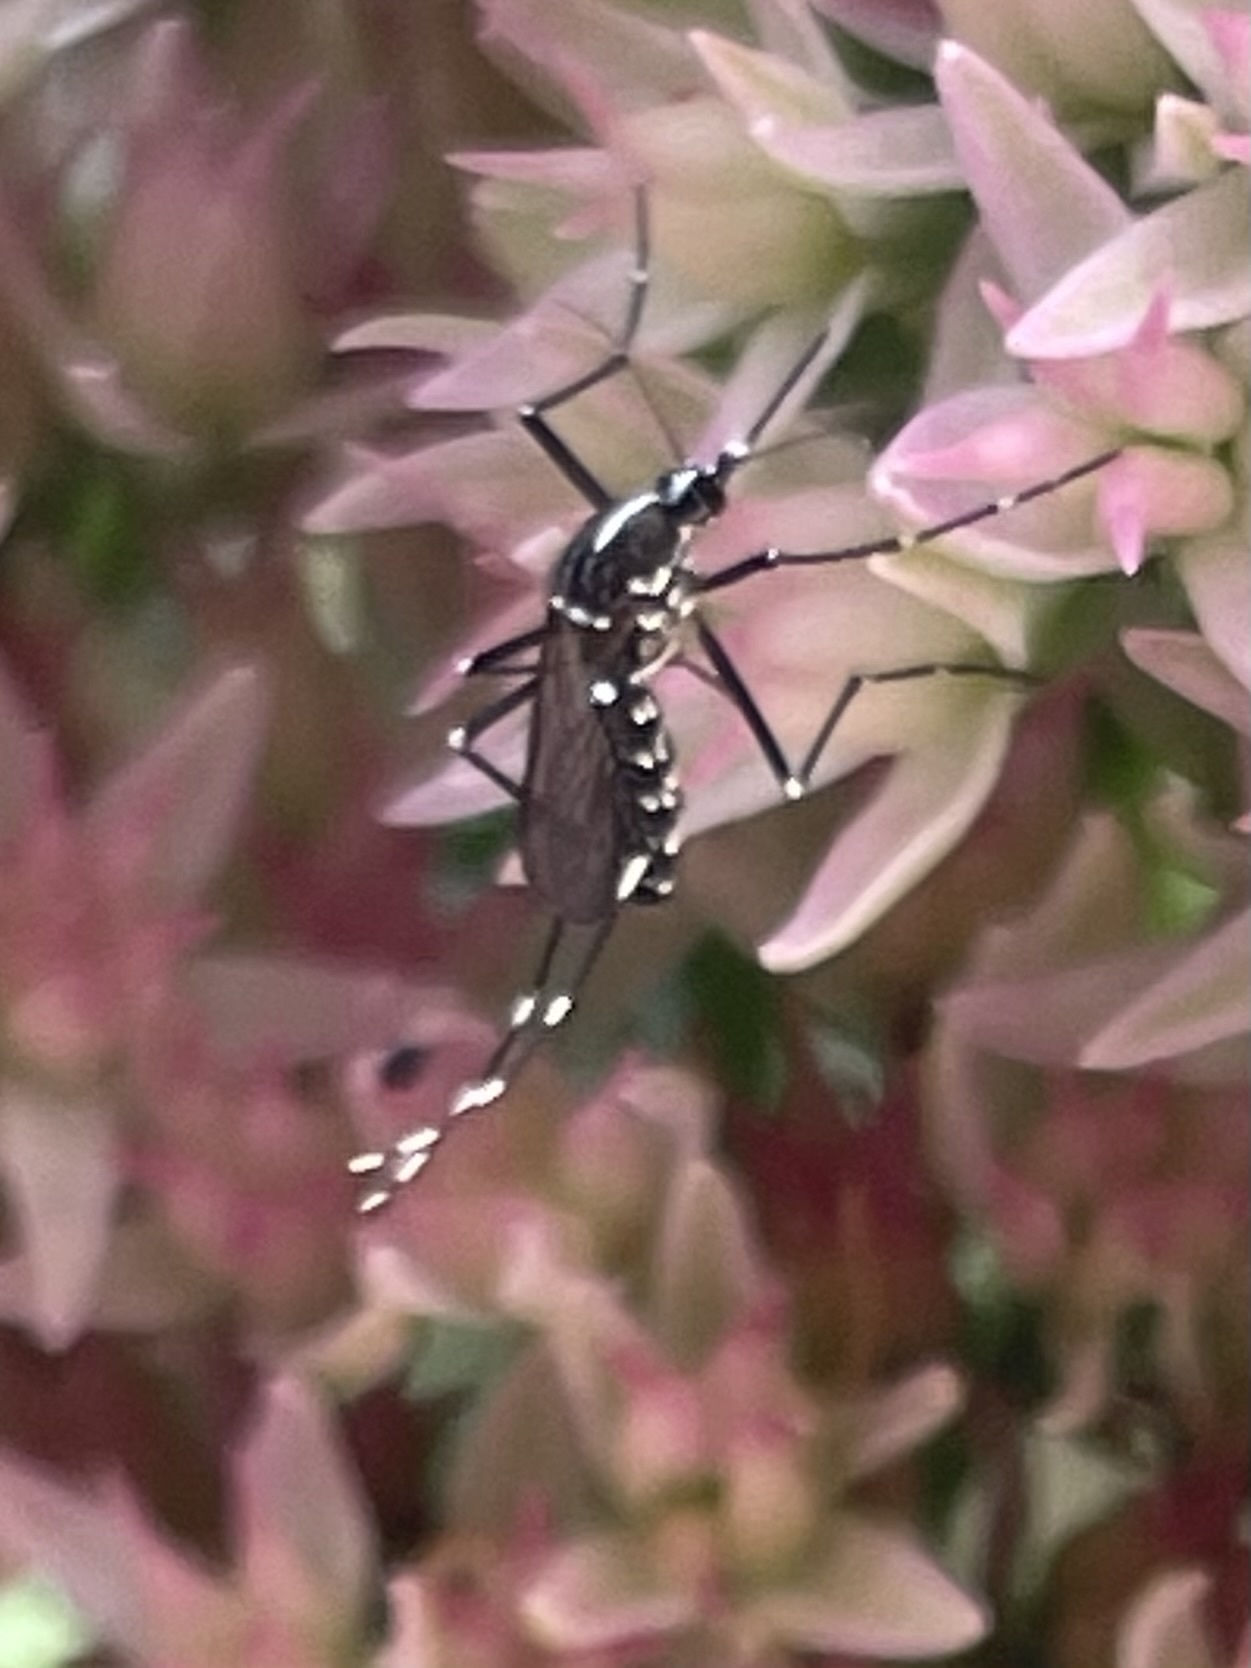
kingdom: Animalia
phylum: Arthropoda
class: Insecta
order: Diptera
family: Culicidae
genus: Aedes
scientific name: Aedes albopictus
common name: Tiger mosquito
